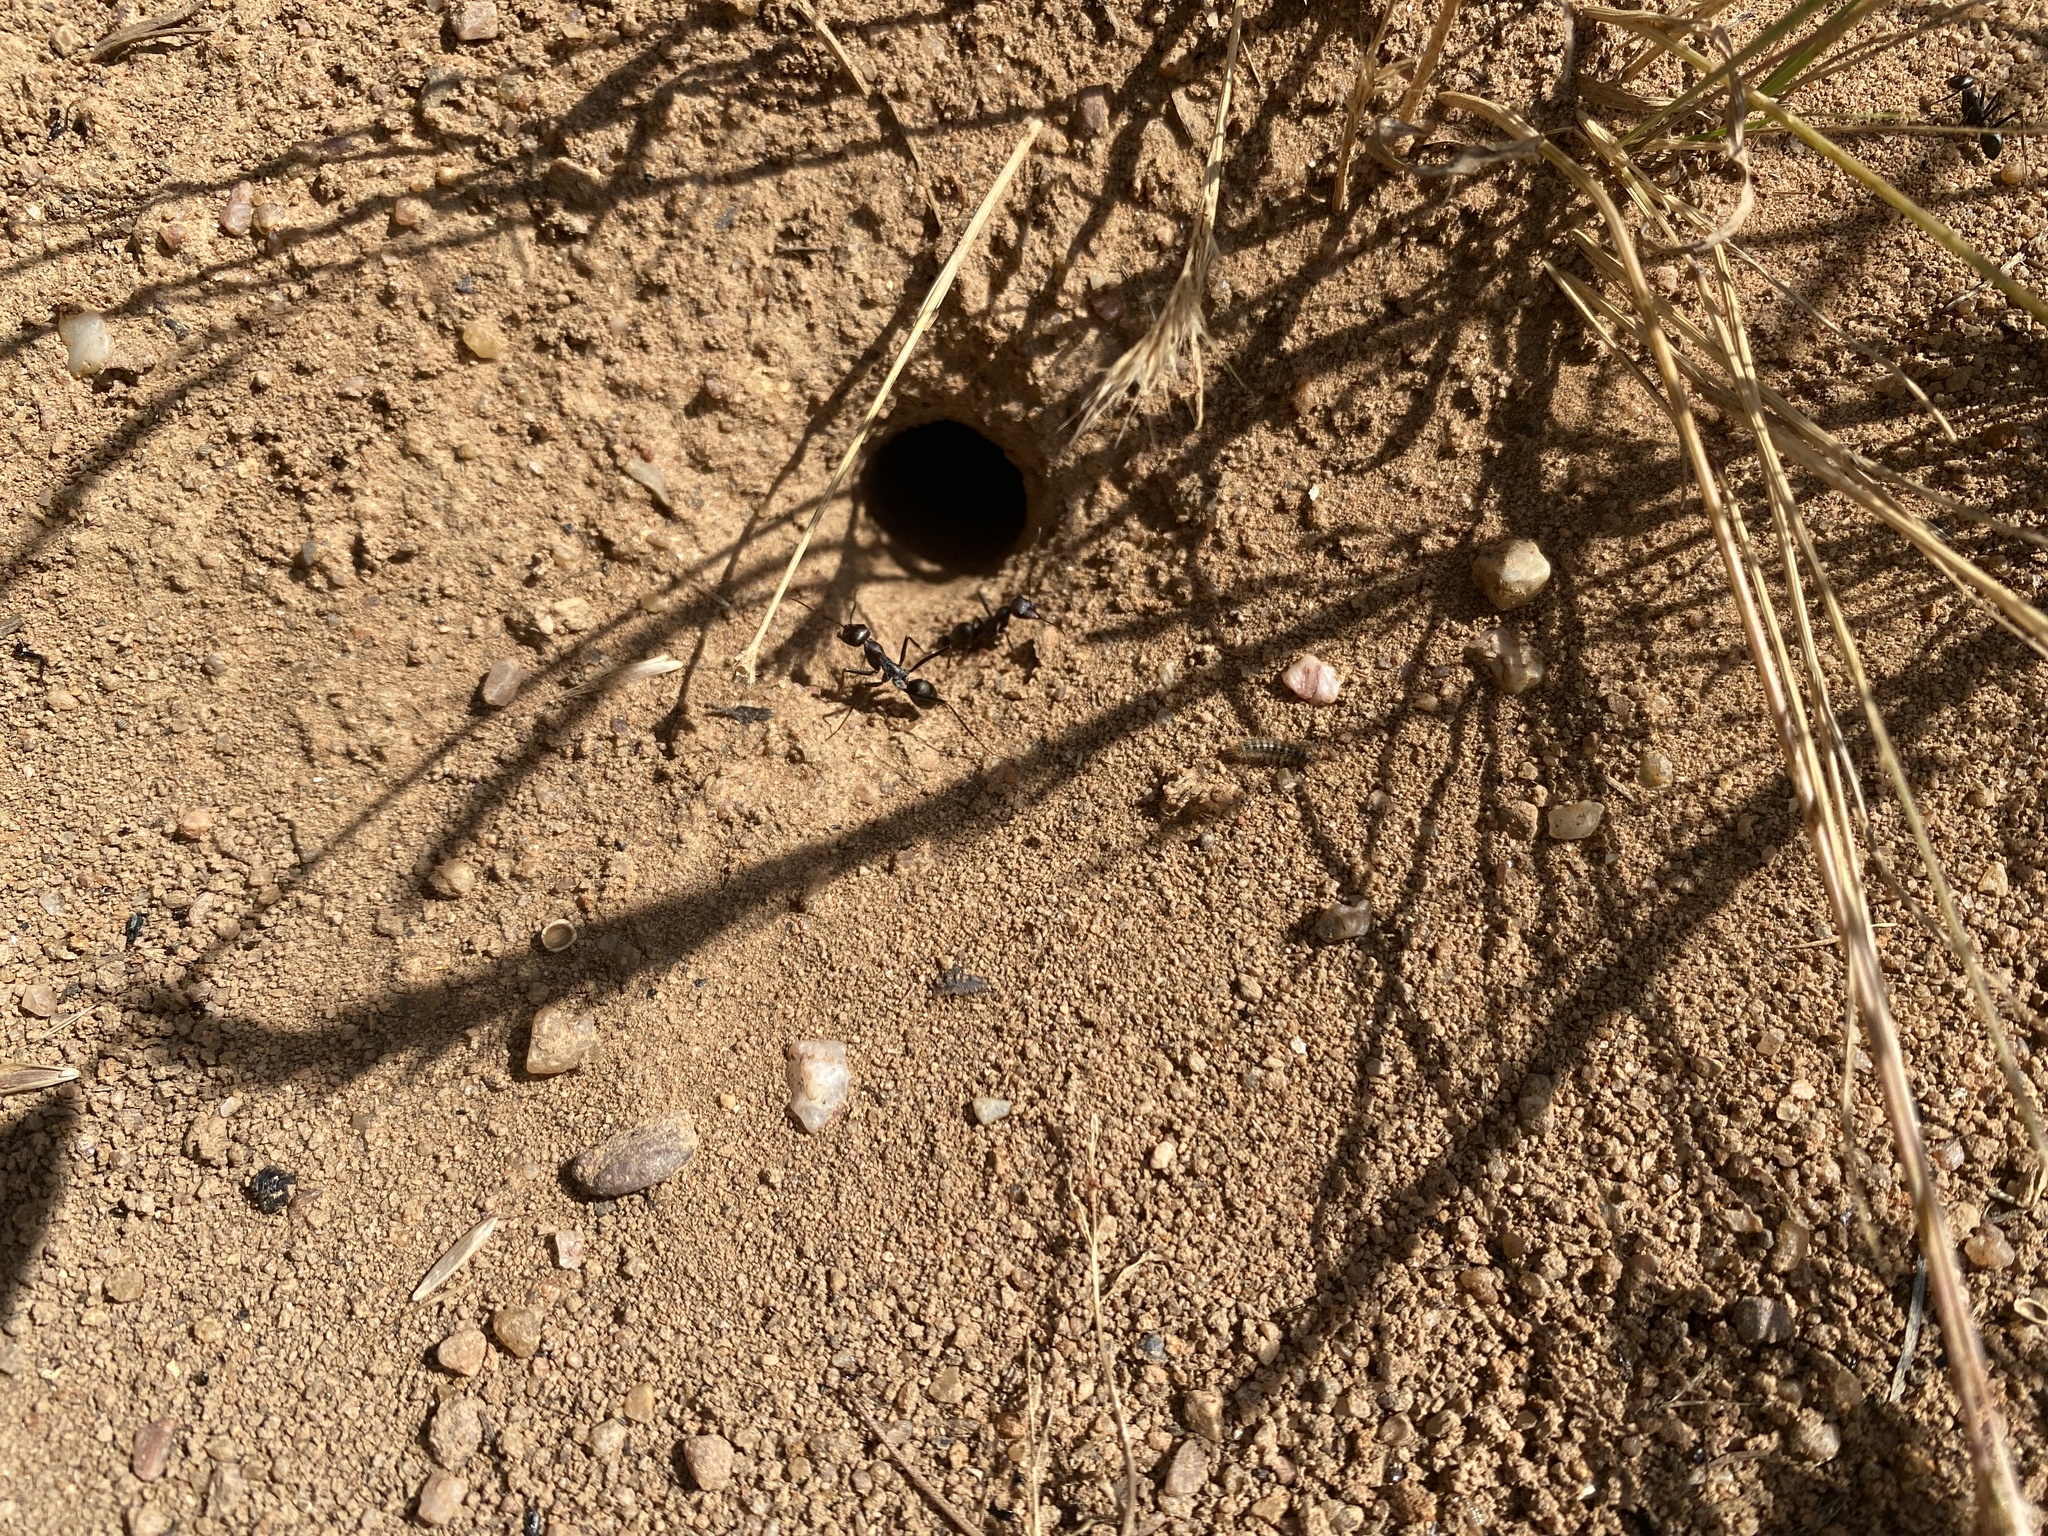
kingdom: Animalia
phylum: Arthropoda
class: Insecta
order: Hymenoptera
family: Formicidae
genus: Cataglyphis
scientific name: Cataglyphis hispanicus
